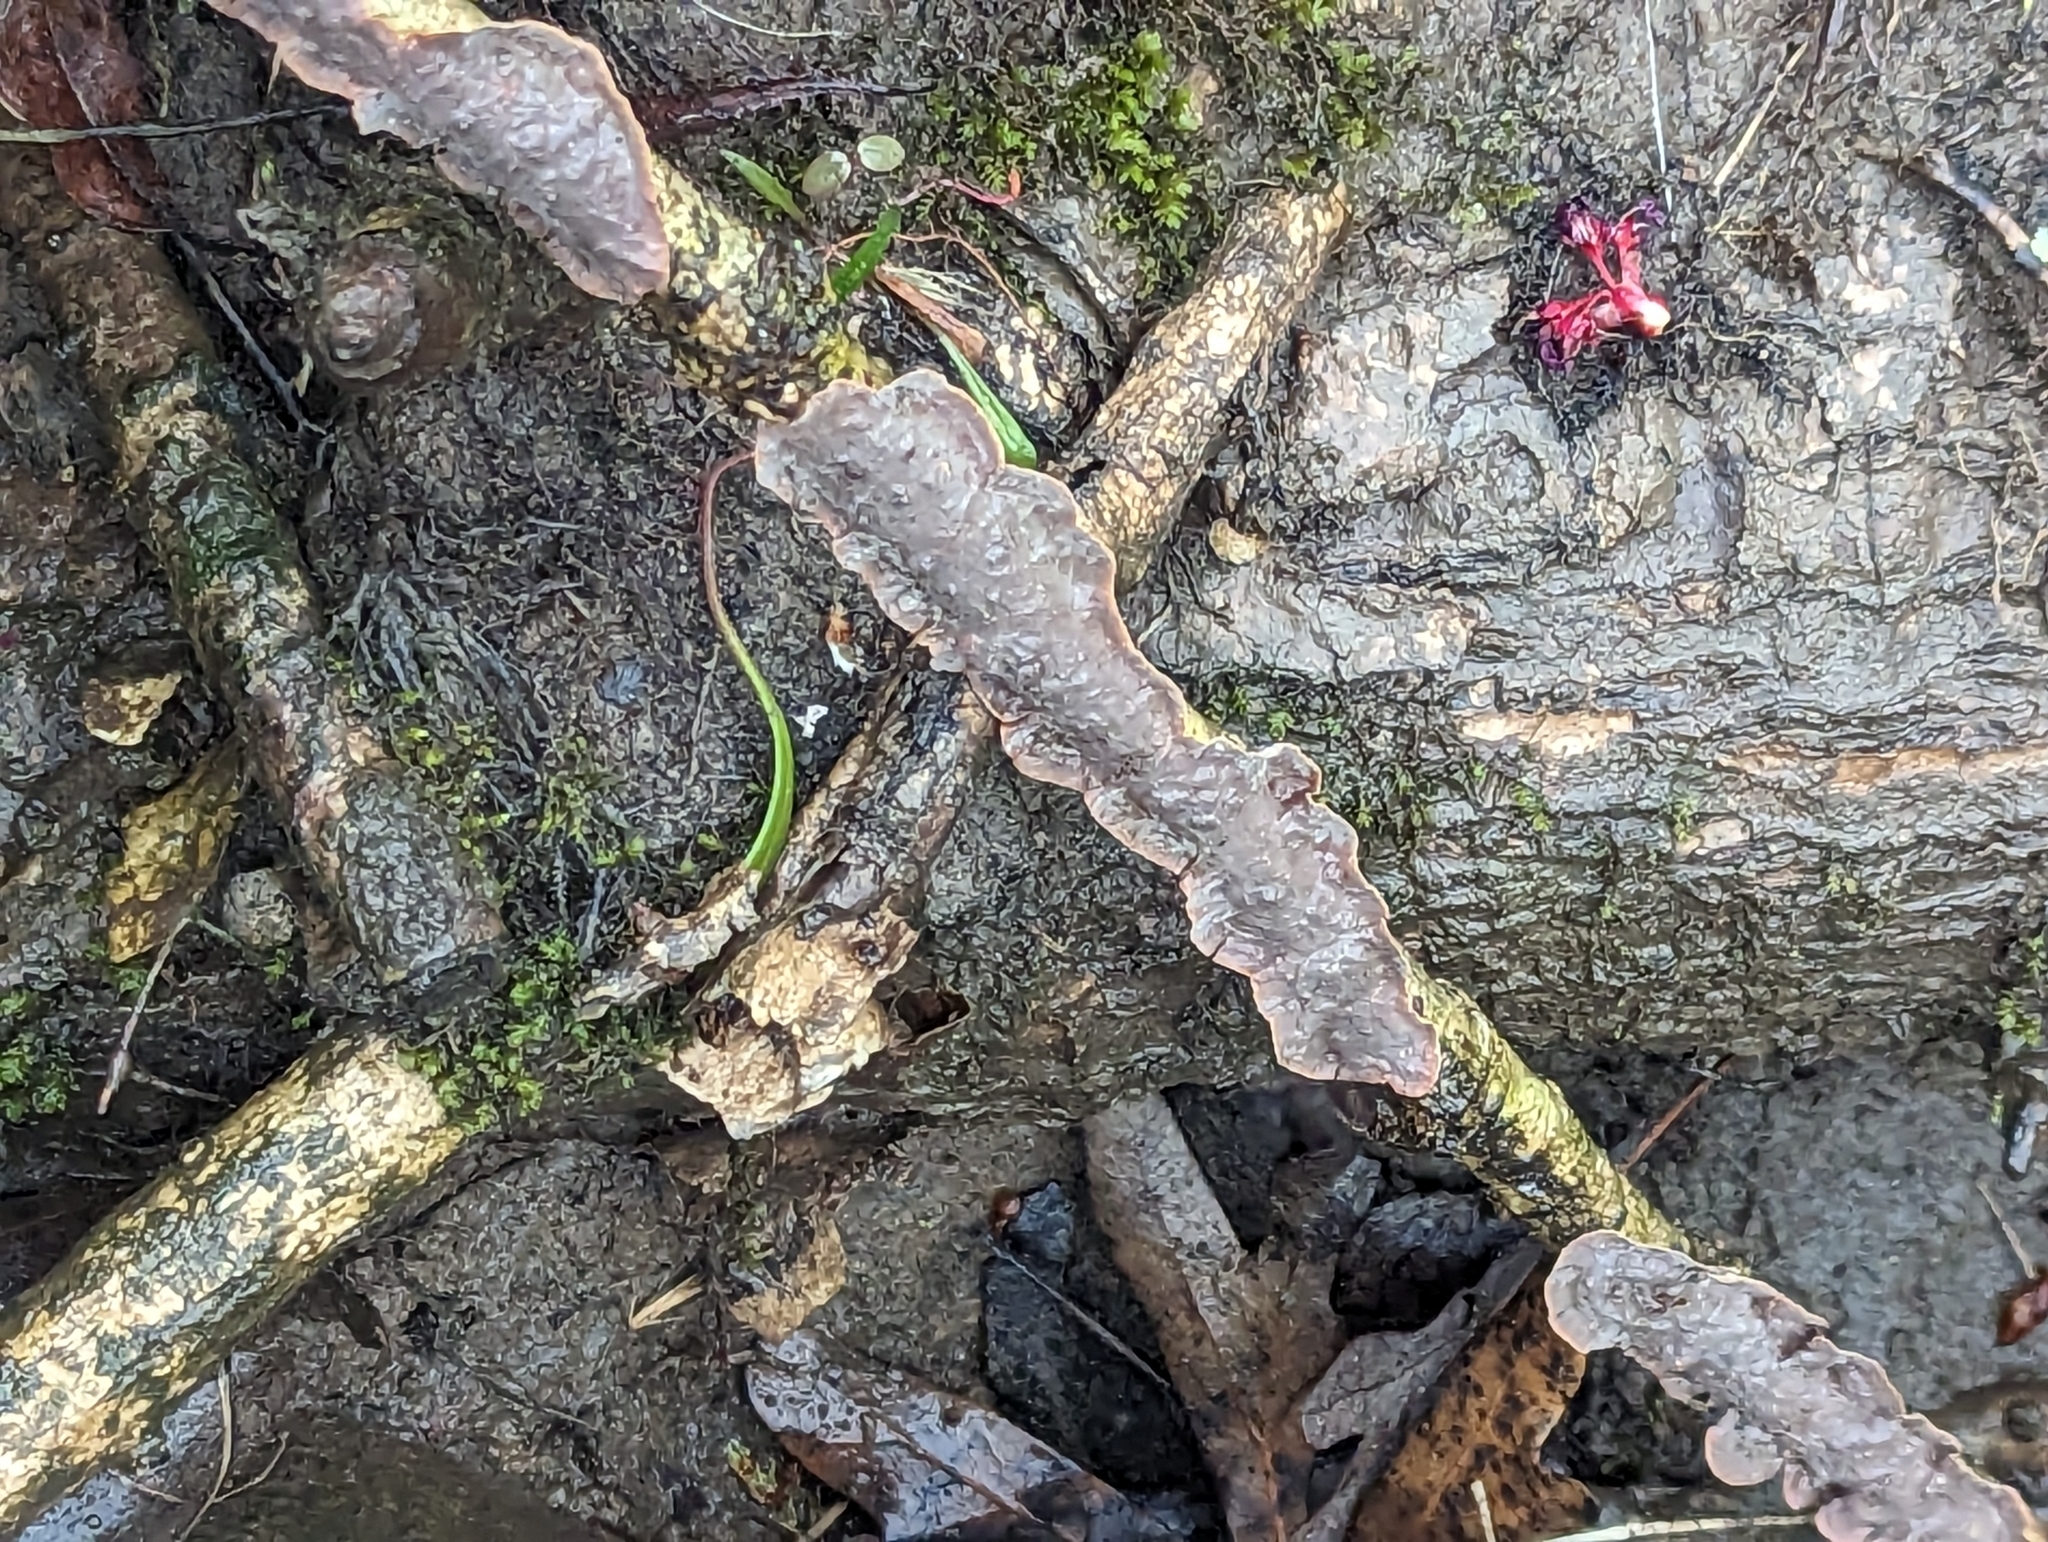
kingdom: Fungi
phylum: Basidiomycota
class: Agaricomycetes
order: Corticiales
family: Punctulariaceae
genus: Punctularia
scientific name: Punctularia strigosozonata
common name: White-rot fungus
